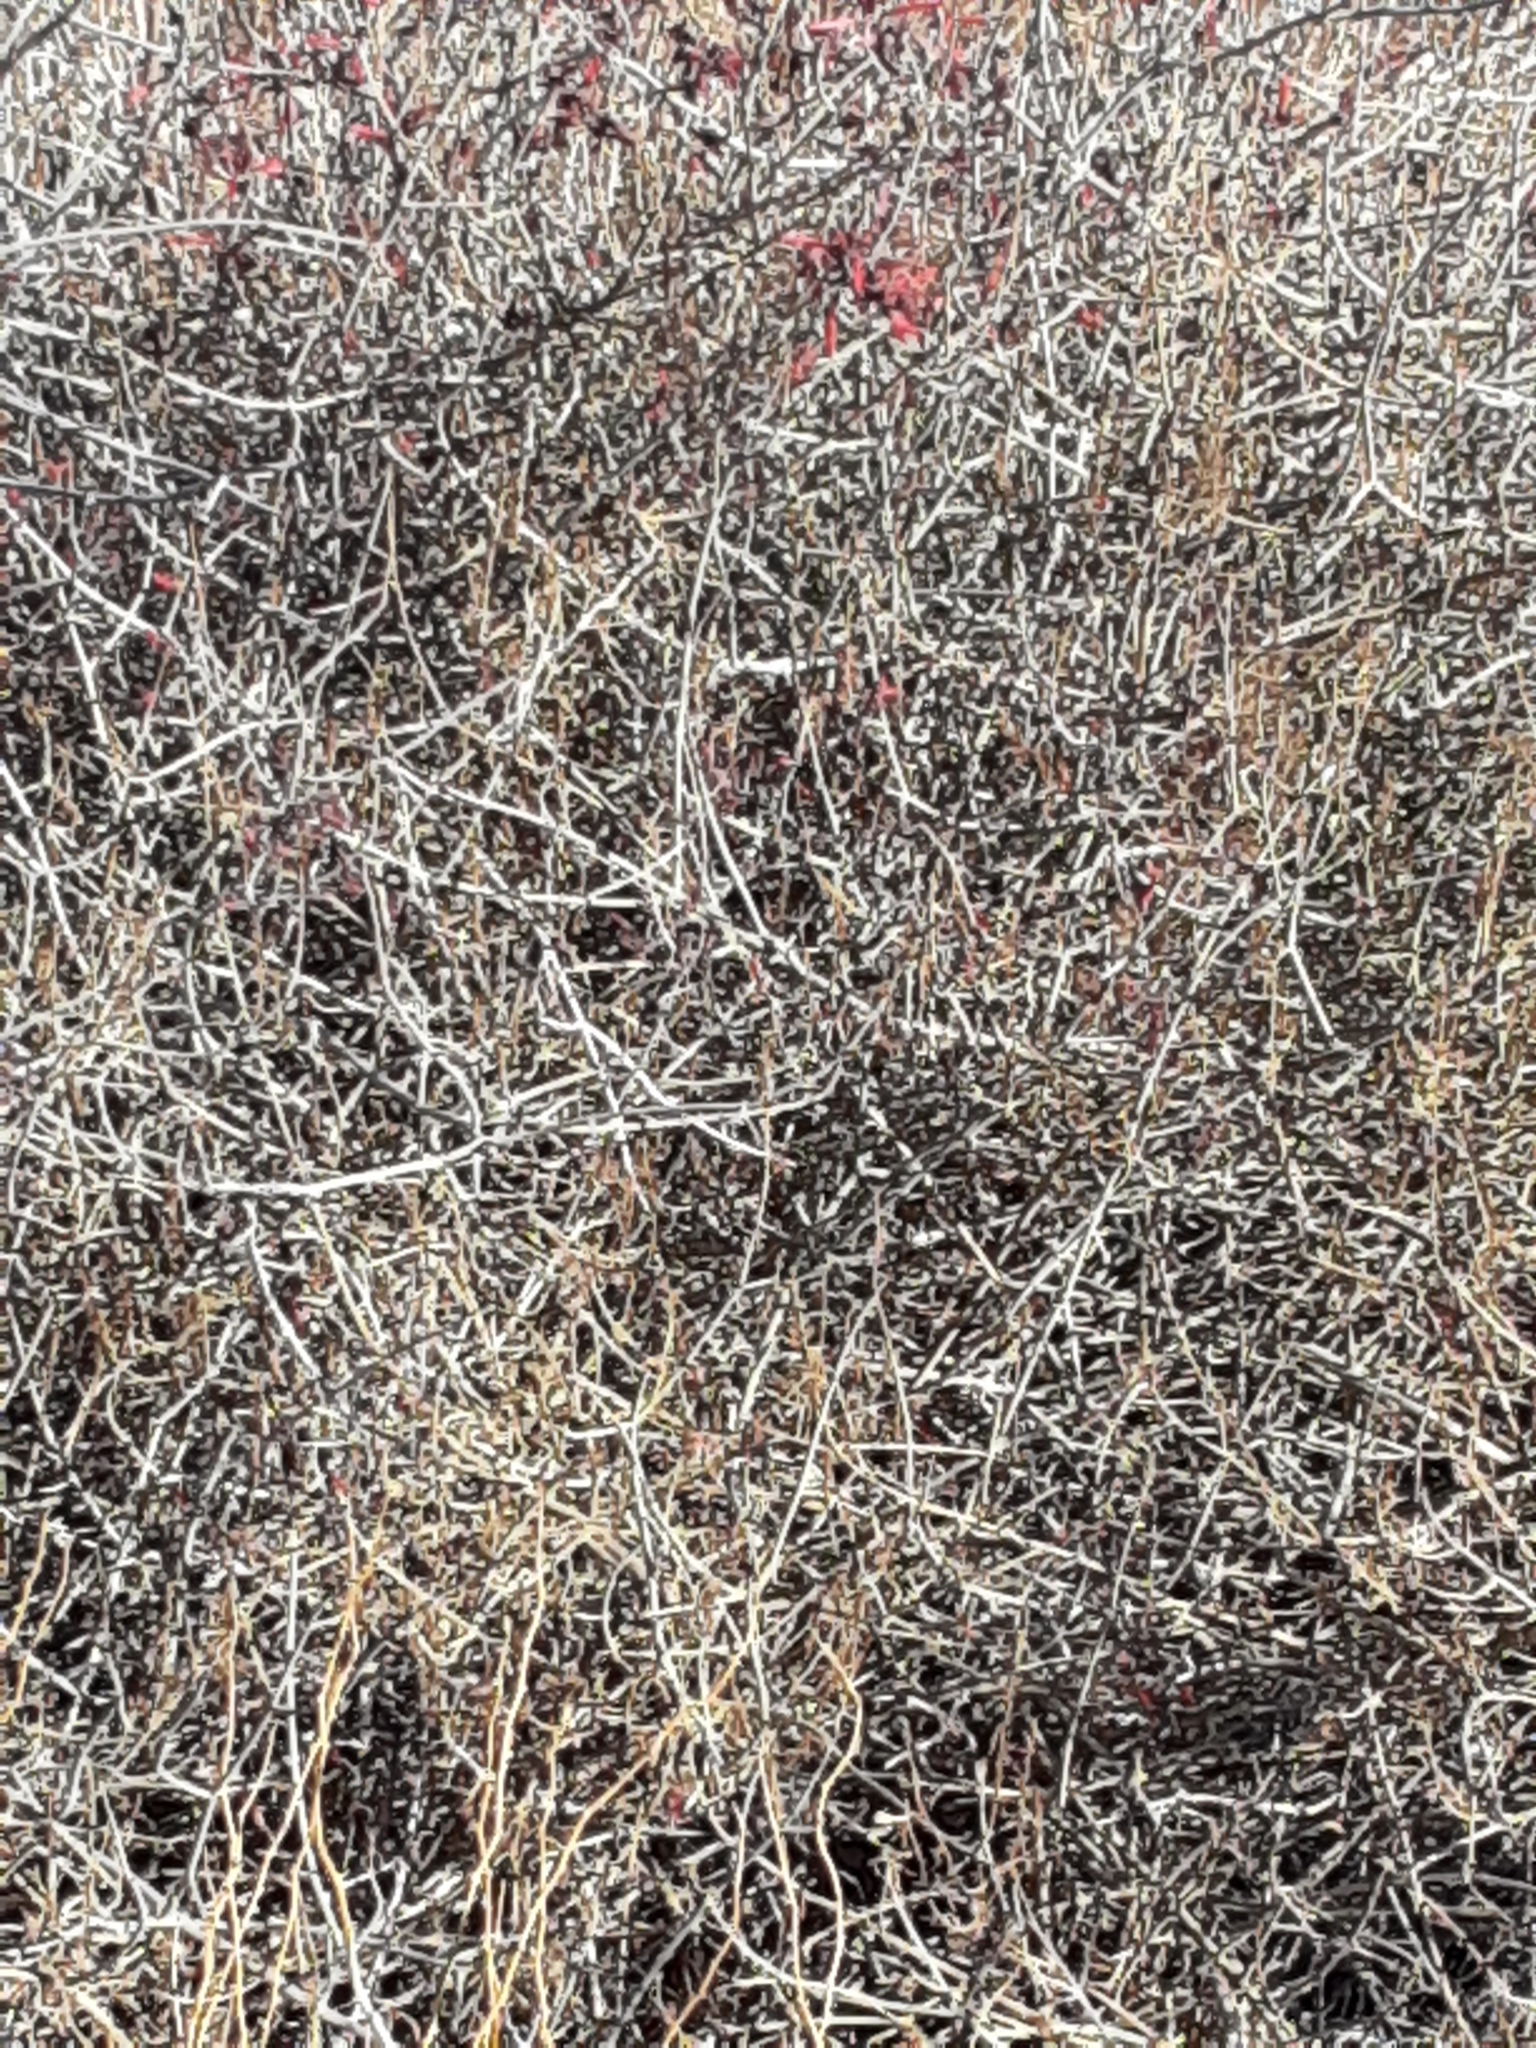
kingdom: Plantae
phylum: Tracheophyta
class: Magnoliopsida
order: Lamiales
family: Acanthaceae
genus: Justicia
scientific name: Justicia californica
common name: Chuparosa-honeysuckle
